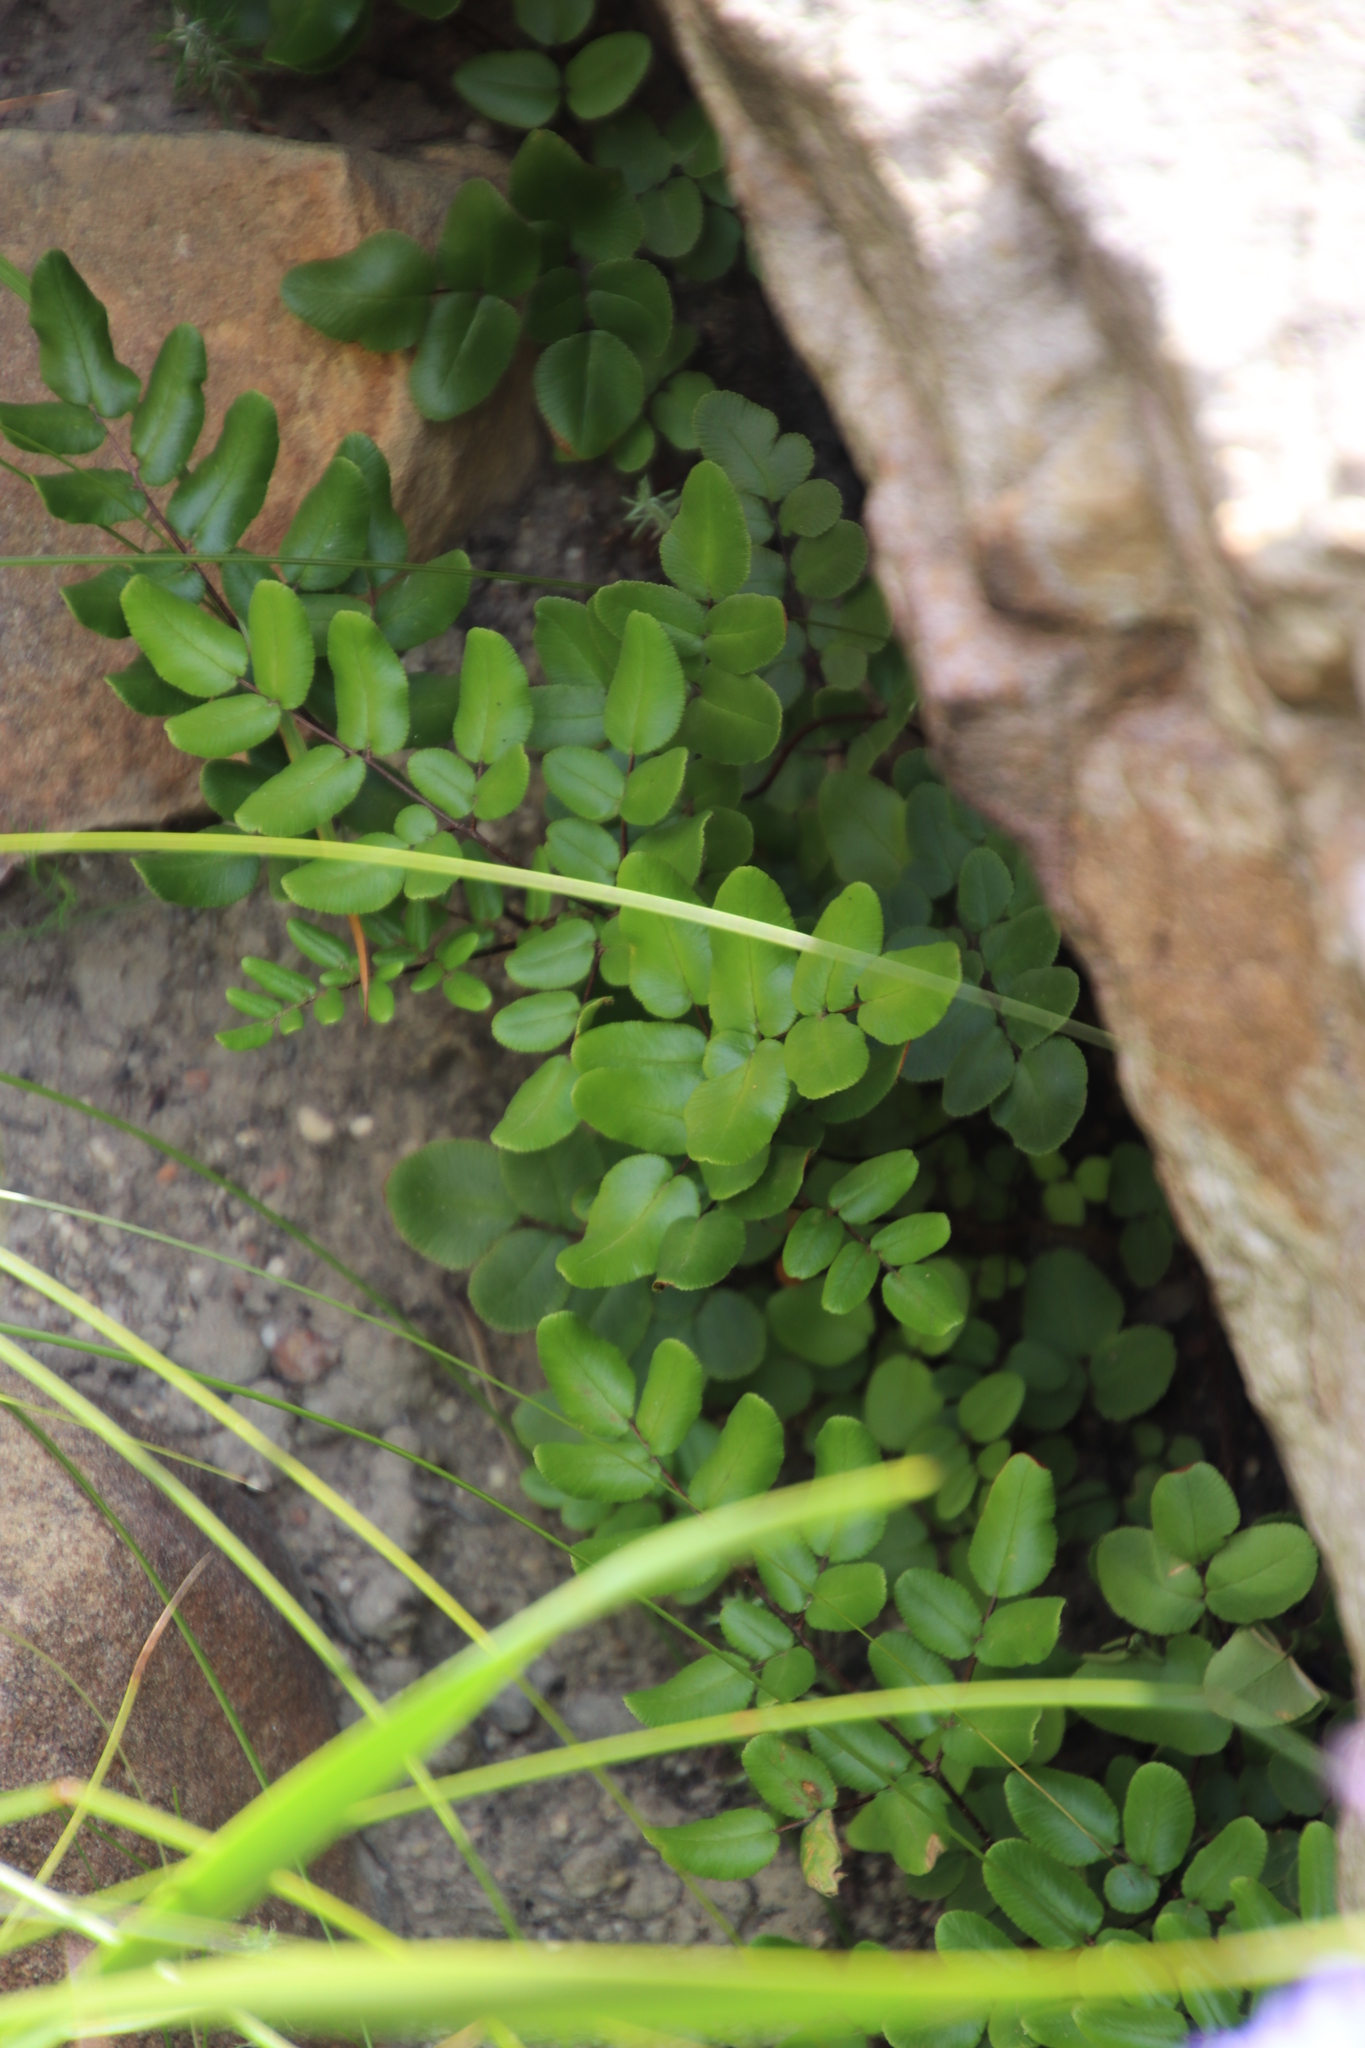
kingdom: Plantae
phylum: Tracheophyta
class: Polypodiopsida
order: Polypodiales
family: Pteridaceae
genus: Pellaea
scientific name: Pellaea pteroides
